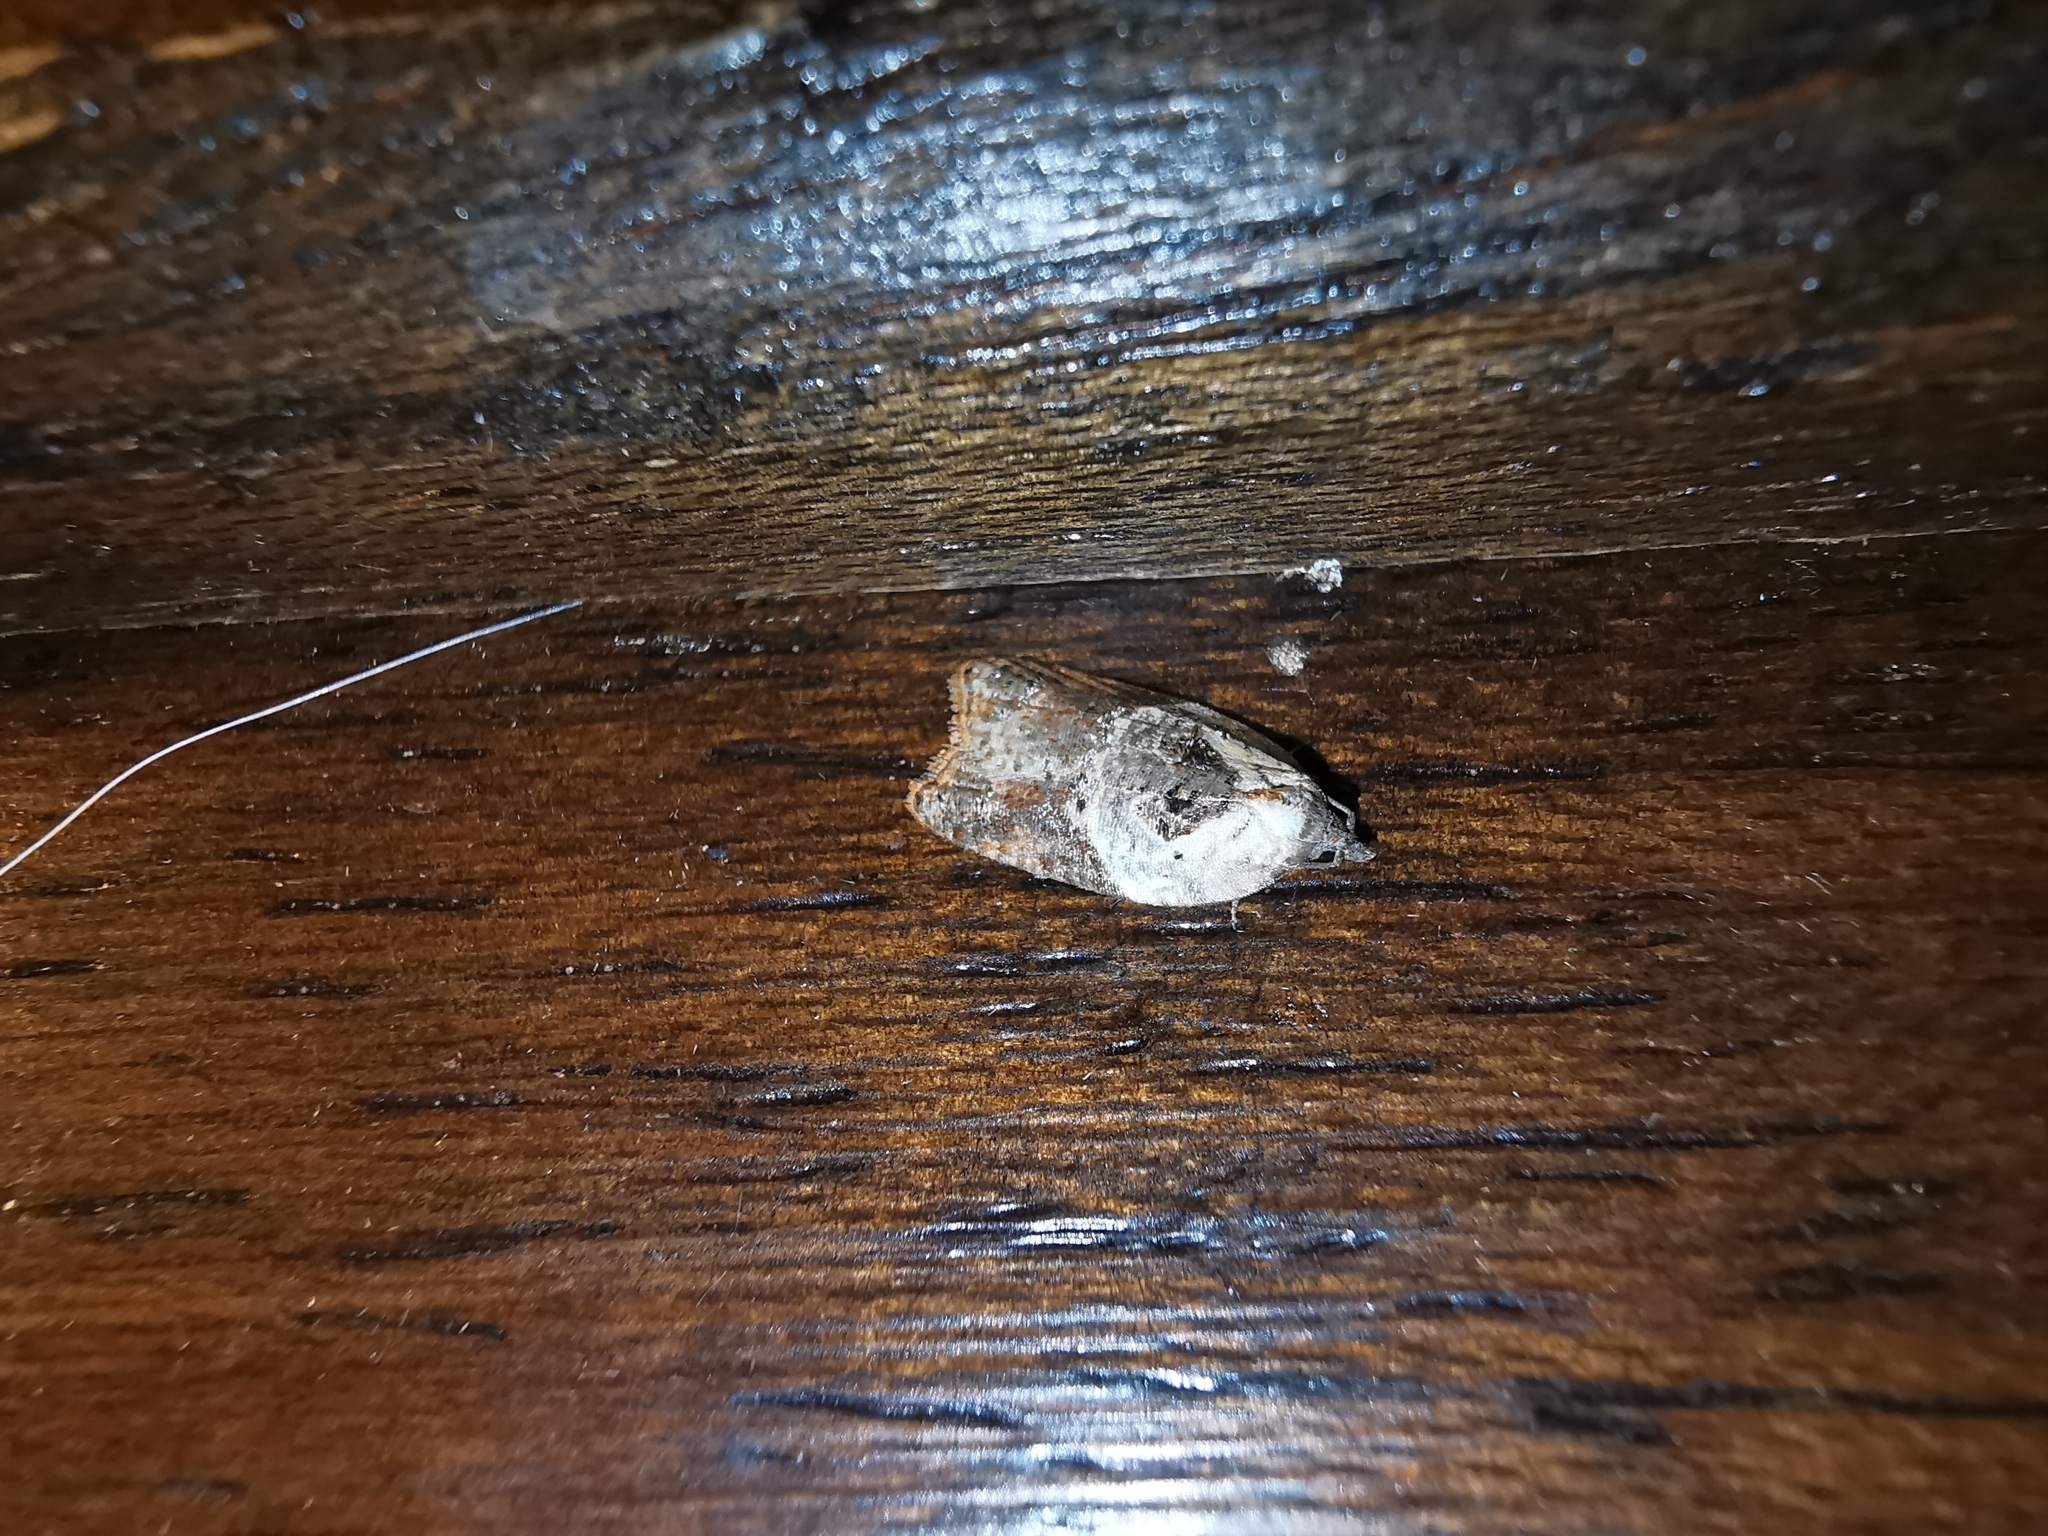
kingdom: Animalia
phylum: Arthropoda
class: Insecta
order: Lepidoptera
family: Tortricidae
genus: Acleris
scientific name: Acleris variegana
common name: Garden rose tortrix
